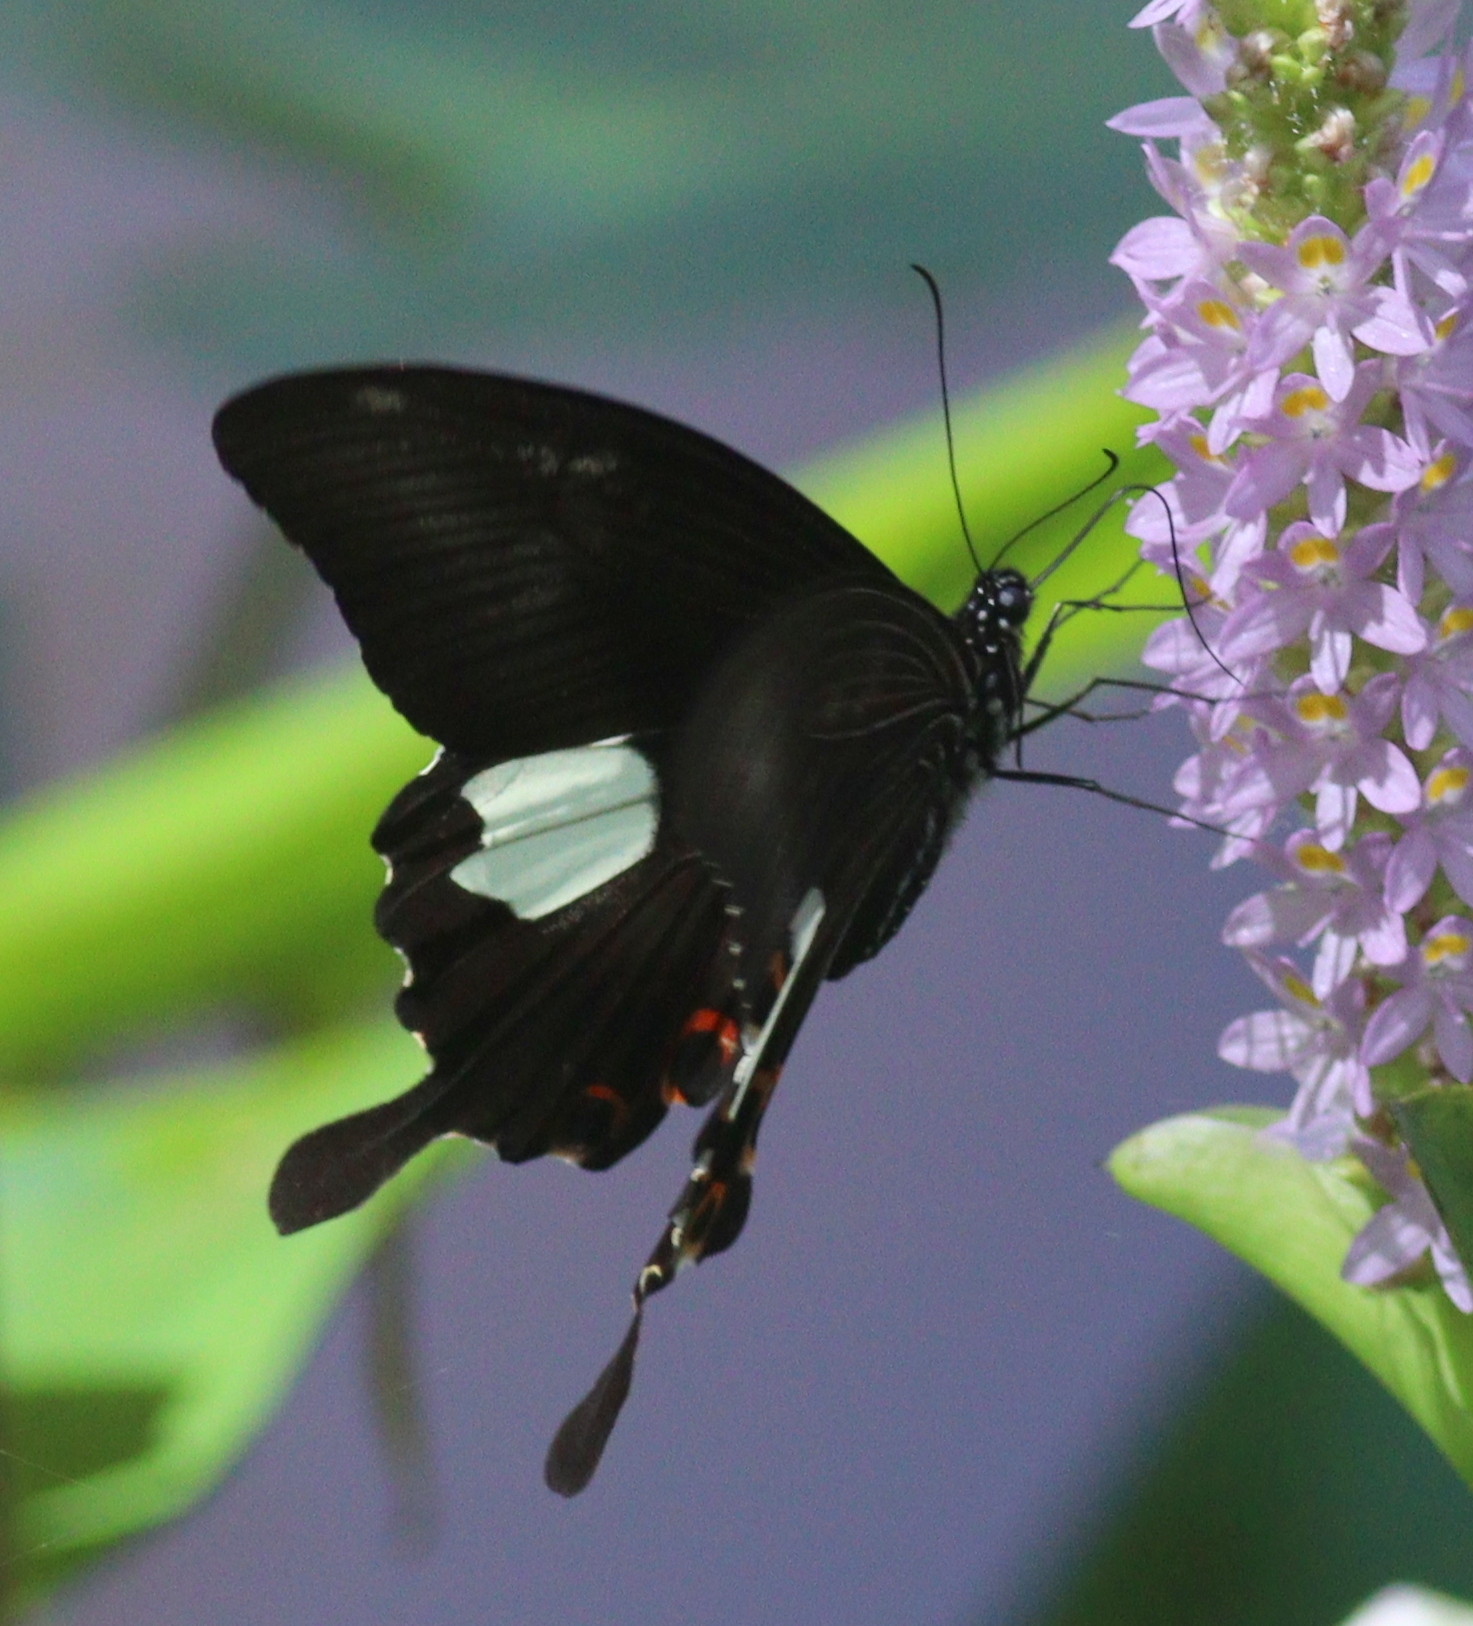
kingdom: Animalia
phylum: Arthropoda
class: Insecta
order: Lepidoptera
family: Papilionidae
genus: Papilio
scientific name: Papilio helenus
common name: Red helen
